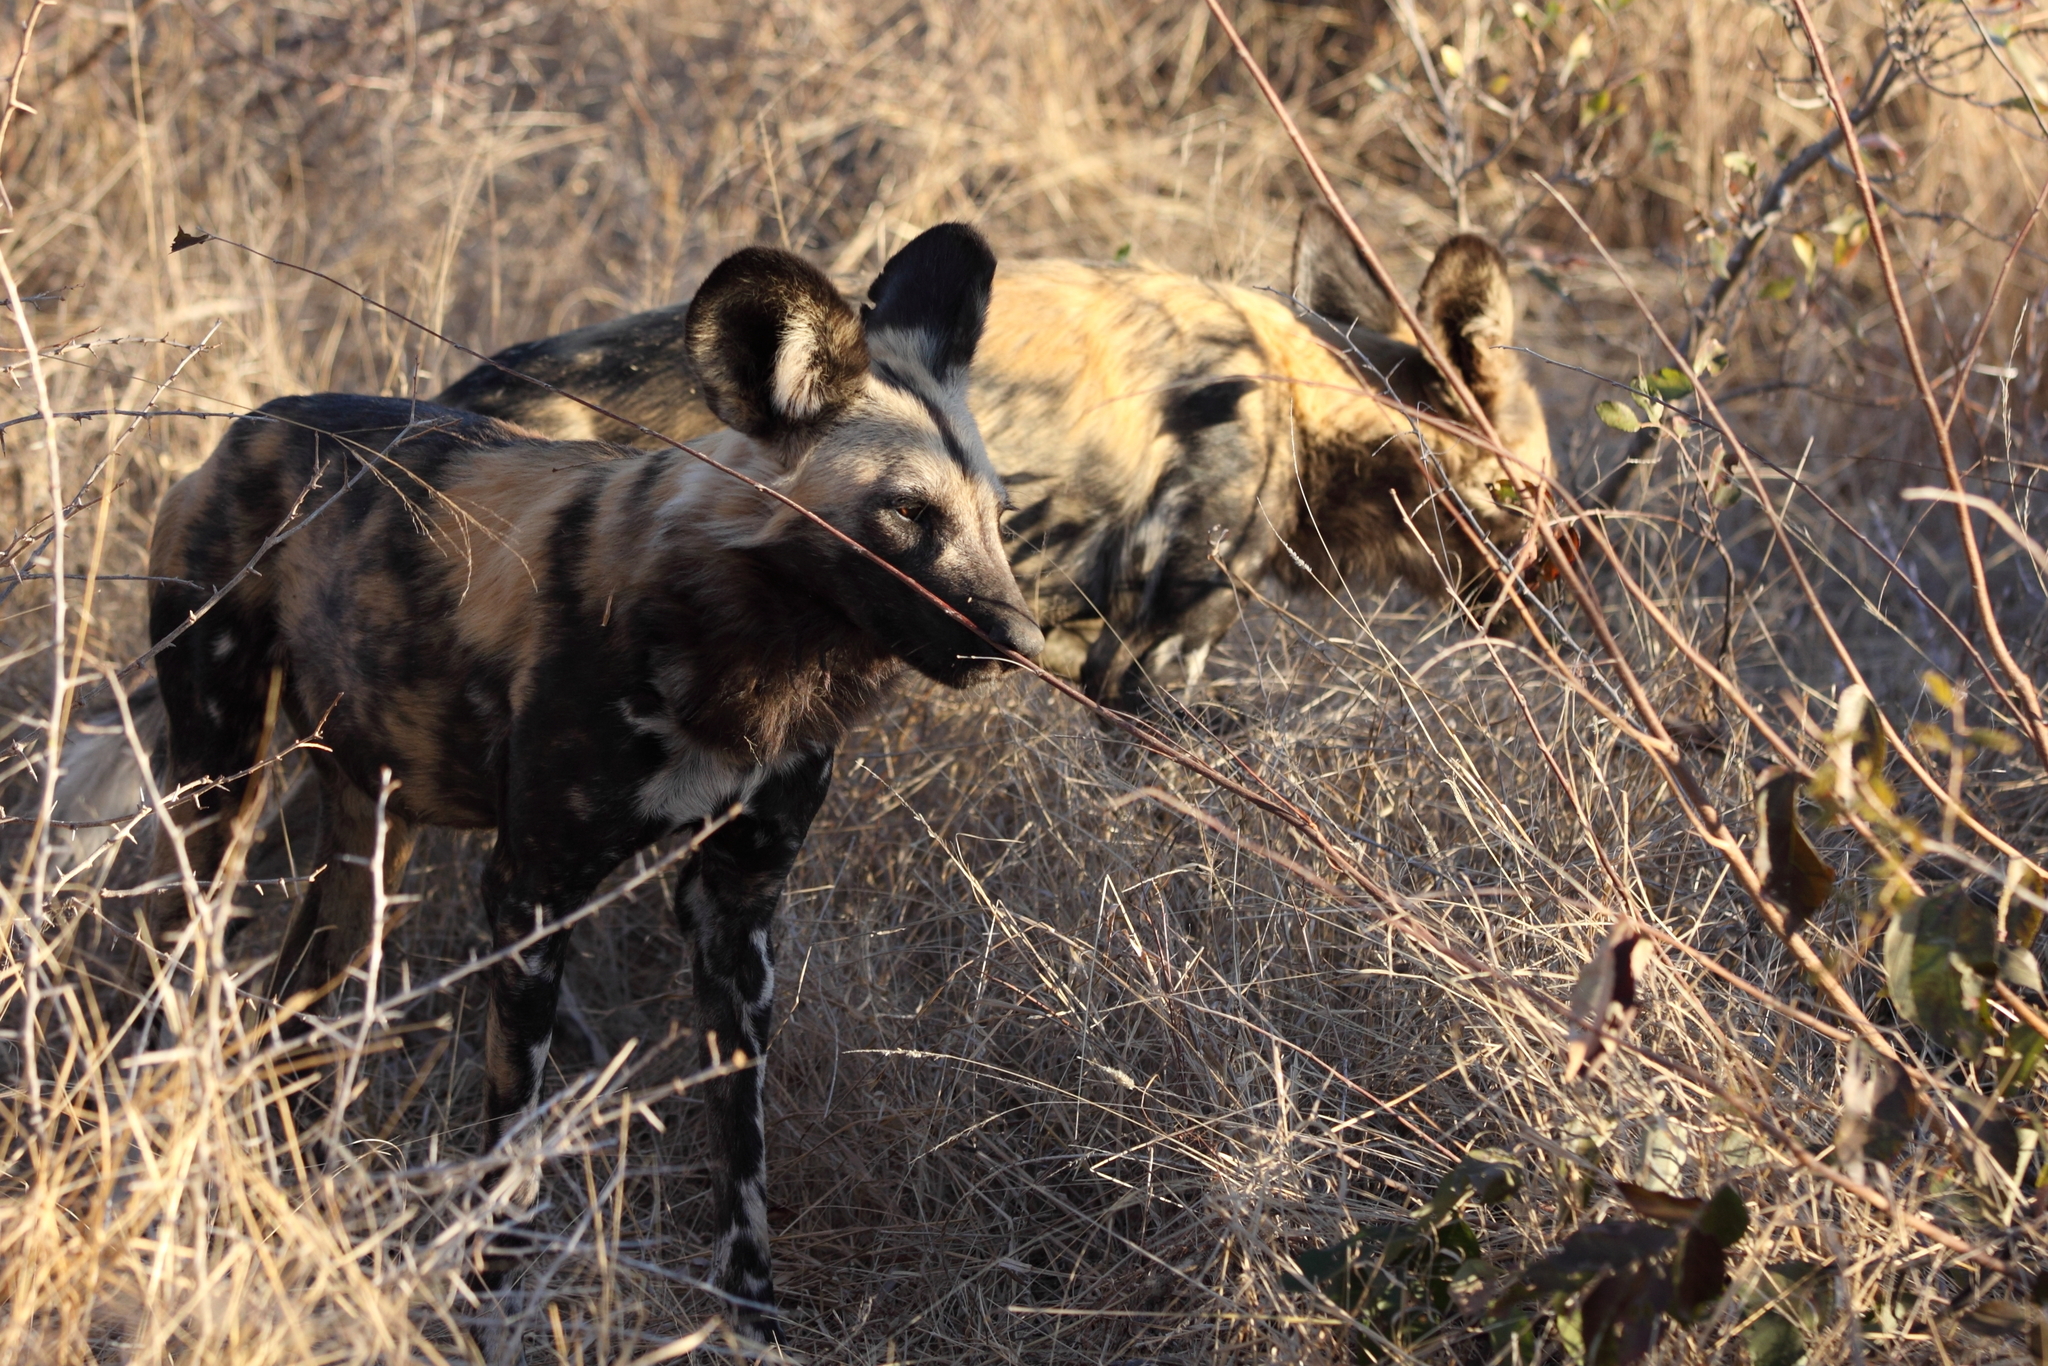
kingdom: Animalia
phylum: Chordata
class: Mammalia
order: Carnivora
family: Canidae
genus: Lycaon
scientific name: Lycaon pictus
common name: African wild dog
